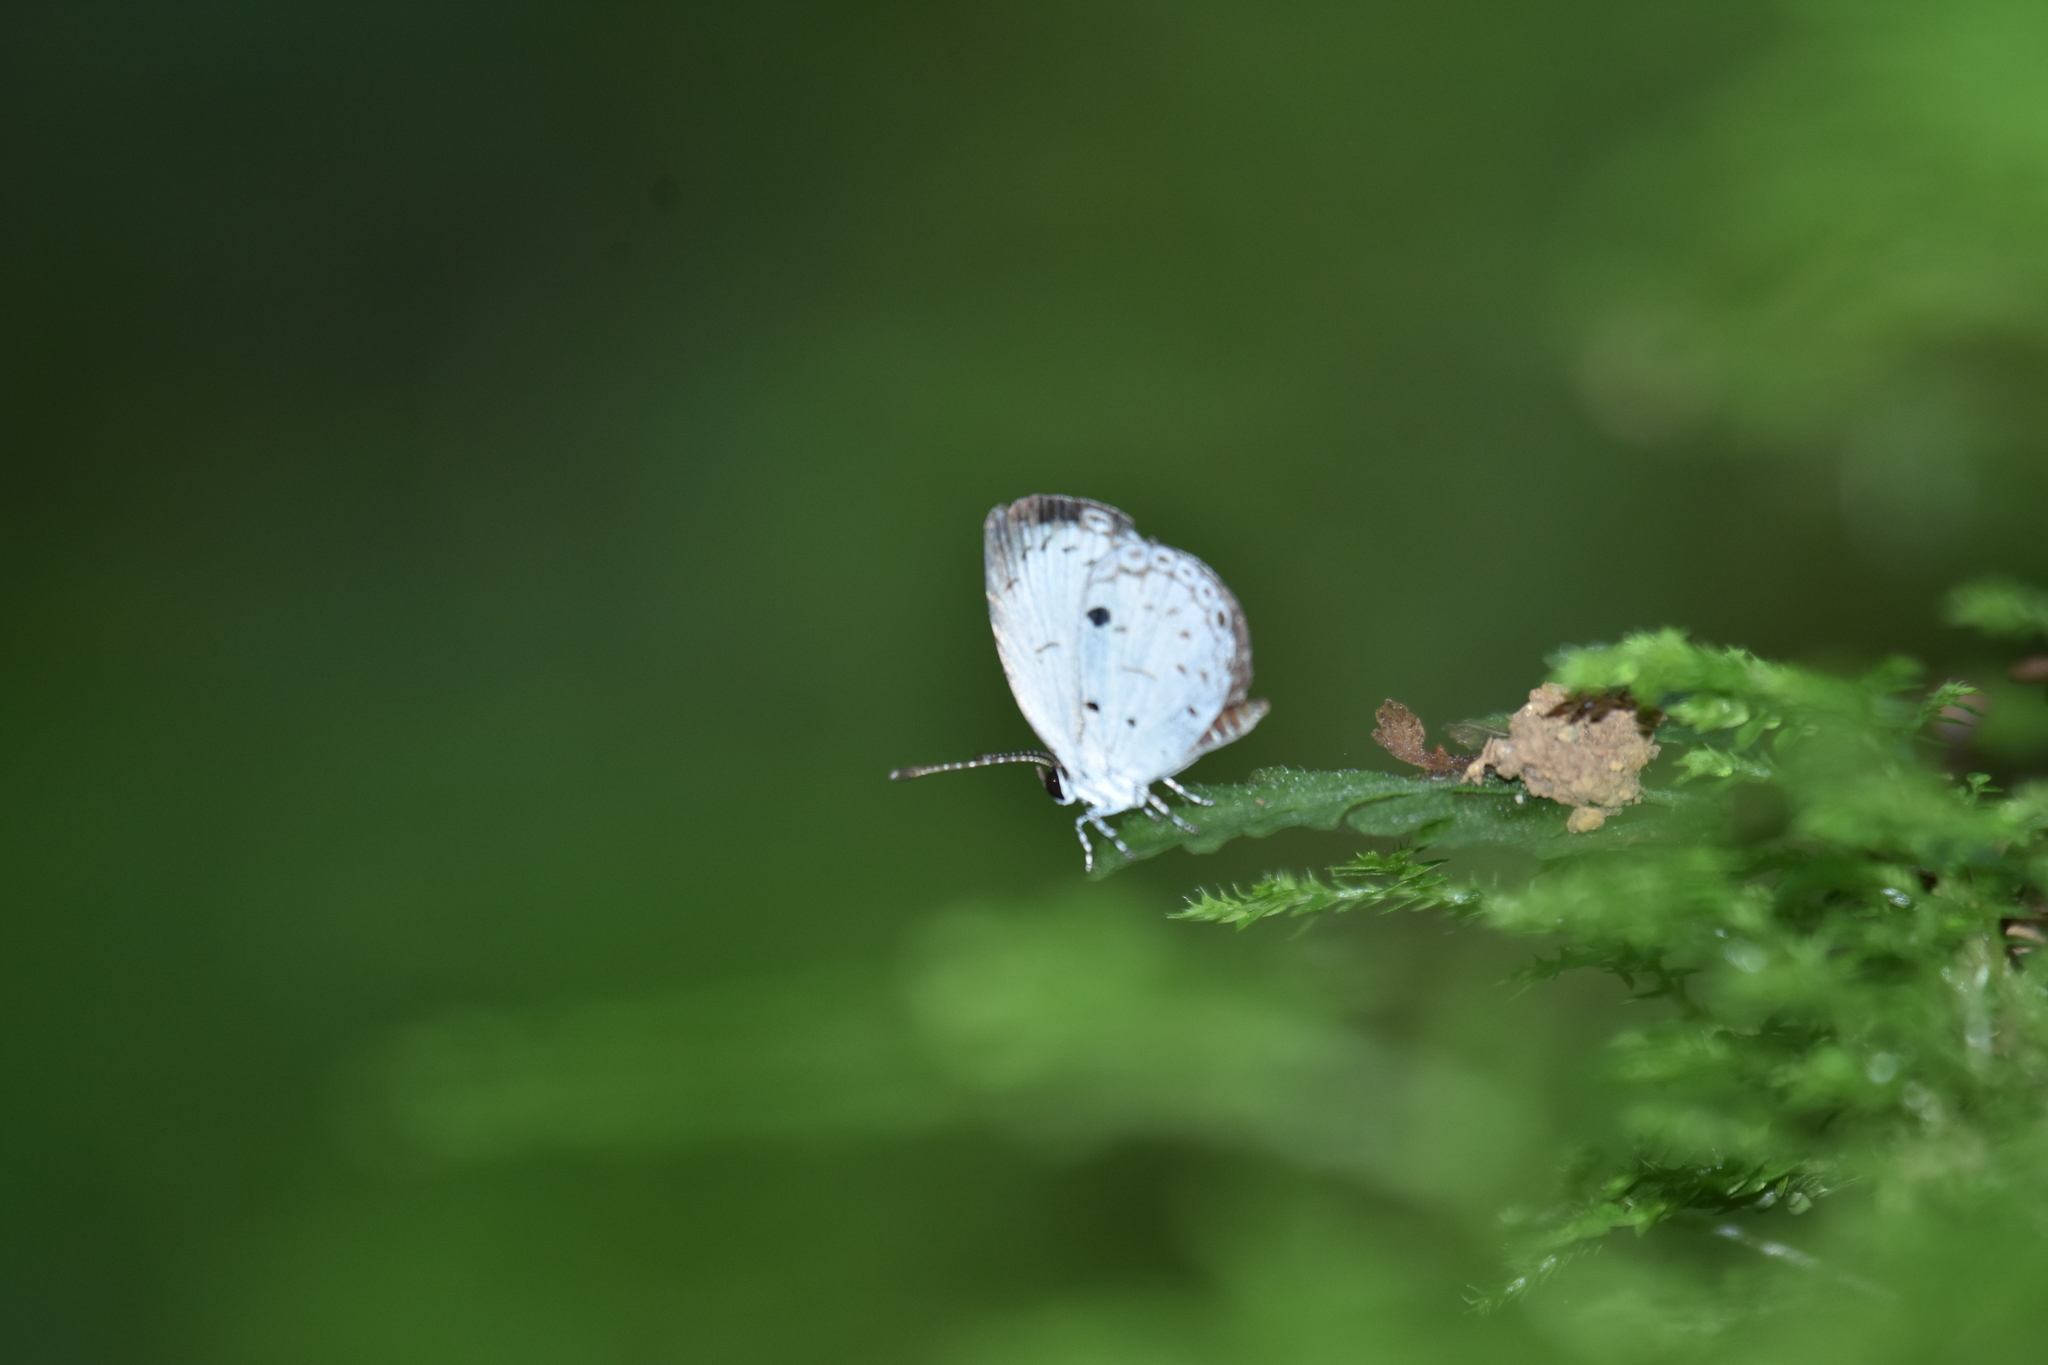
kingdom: Animalia
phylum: Arthropoda
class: Insecta
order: Lepidoptera
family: Lycaenidae
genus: Neopithecops
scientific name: Neopithecops zalmora
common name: Quaker
